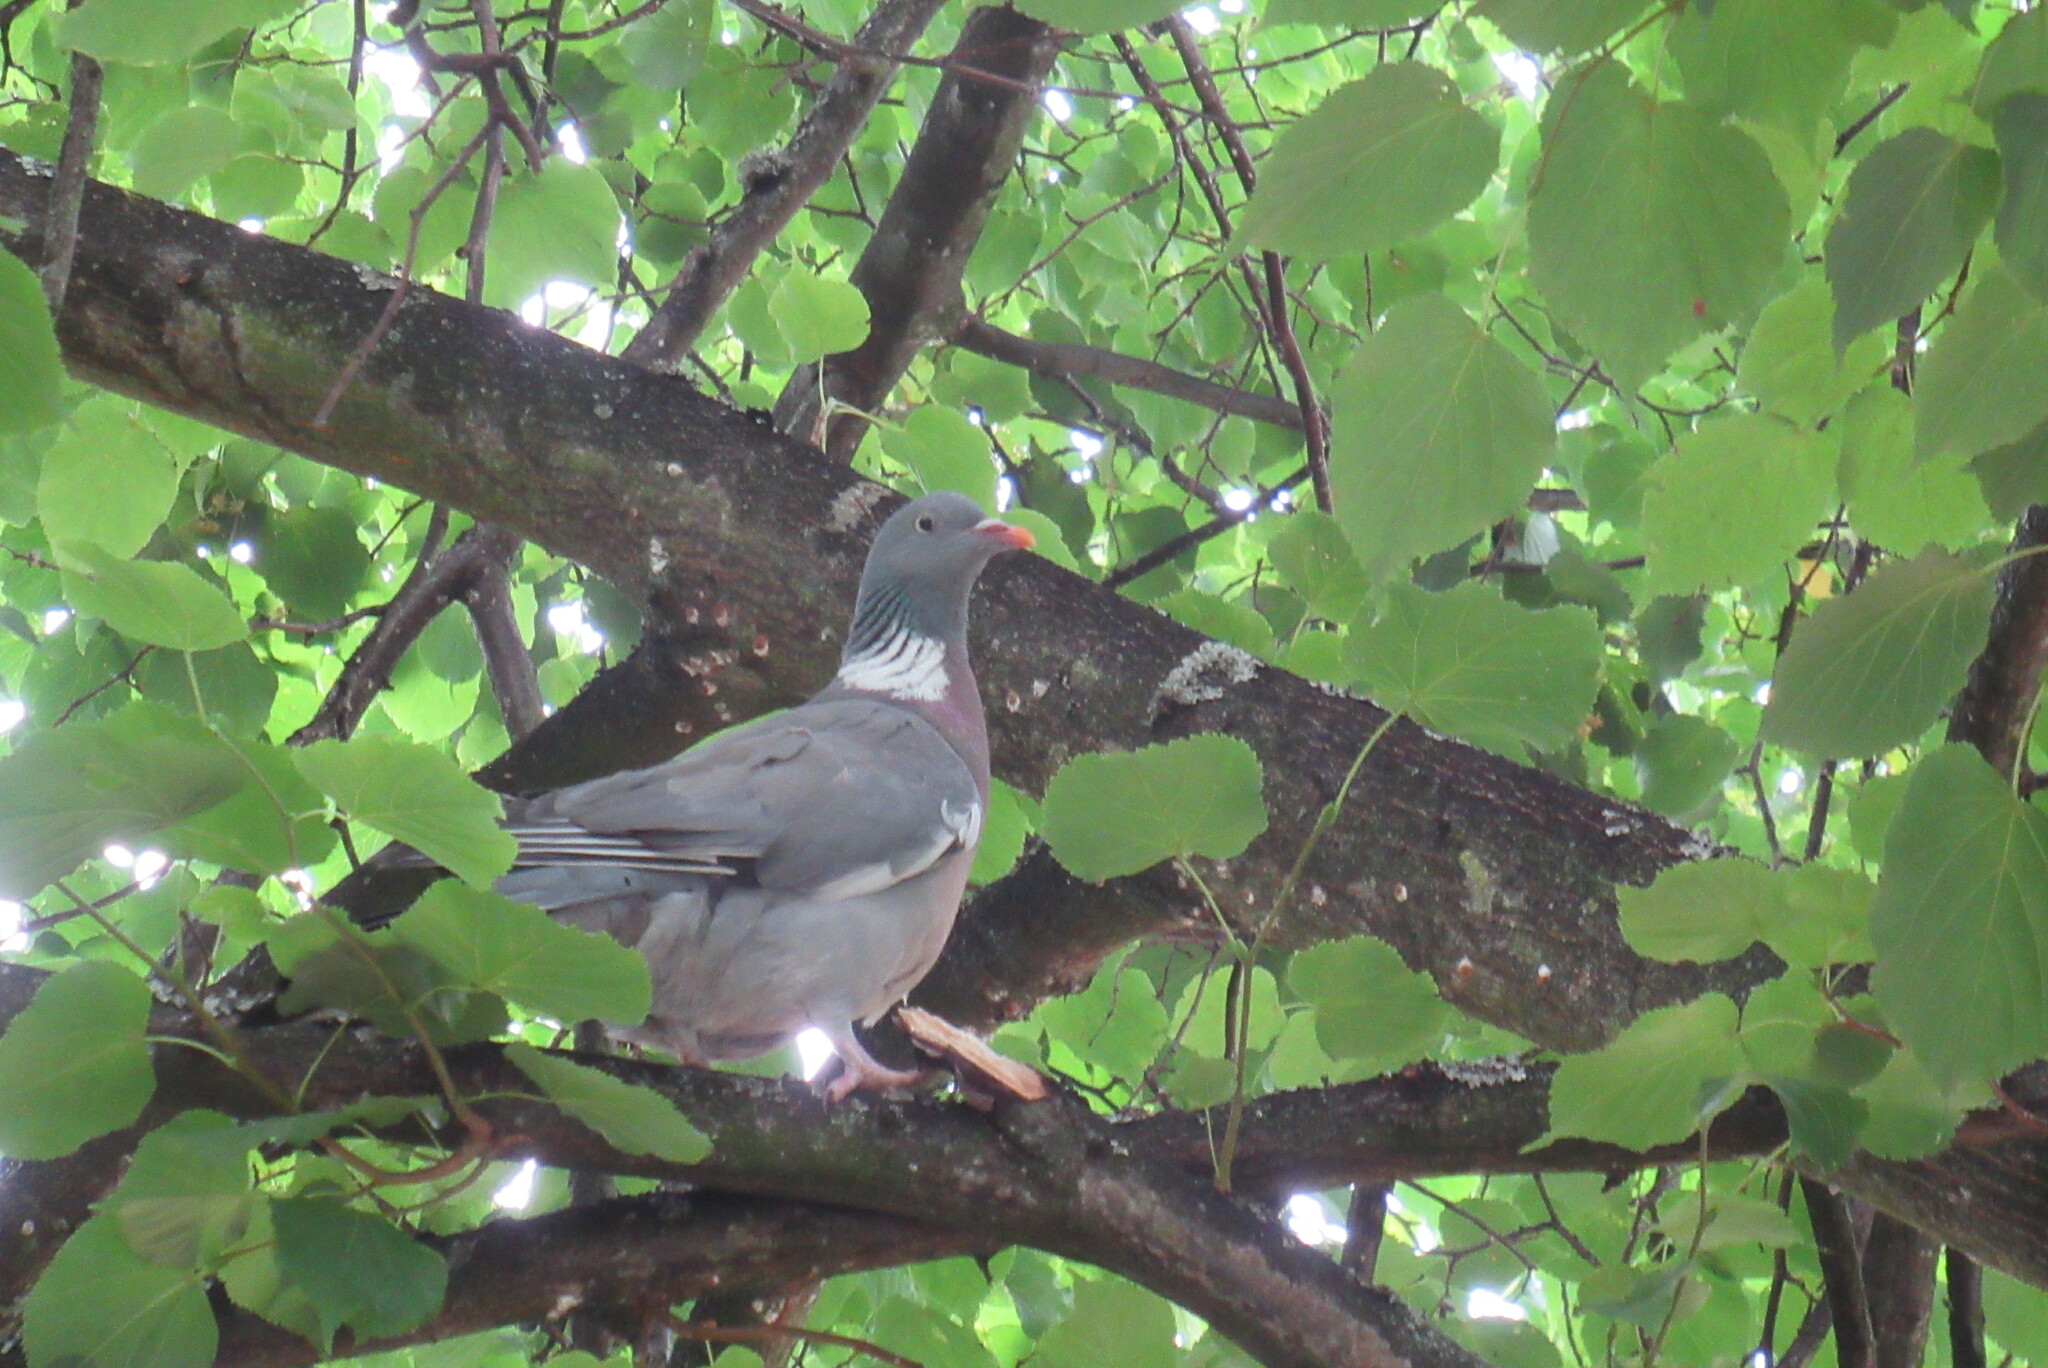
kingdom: Animalia
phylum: Chordata
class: Aves
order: Columbiformes
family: Columbidae
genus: Columba
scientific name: Columba palumbus
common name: Common wood pigeon
